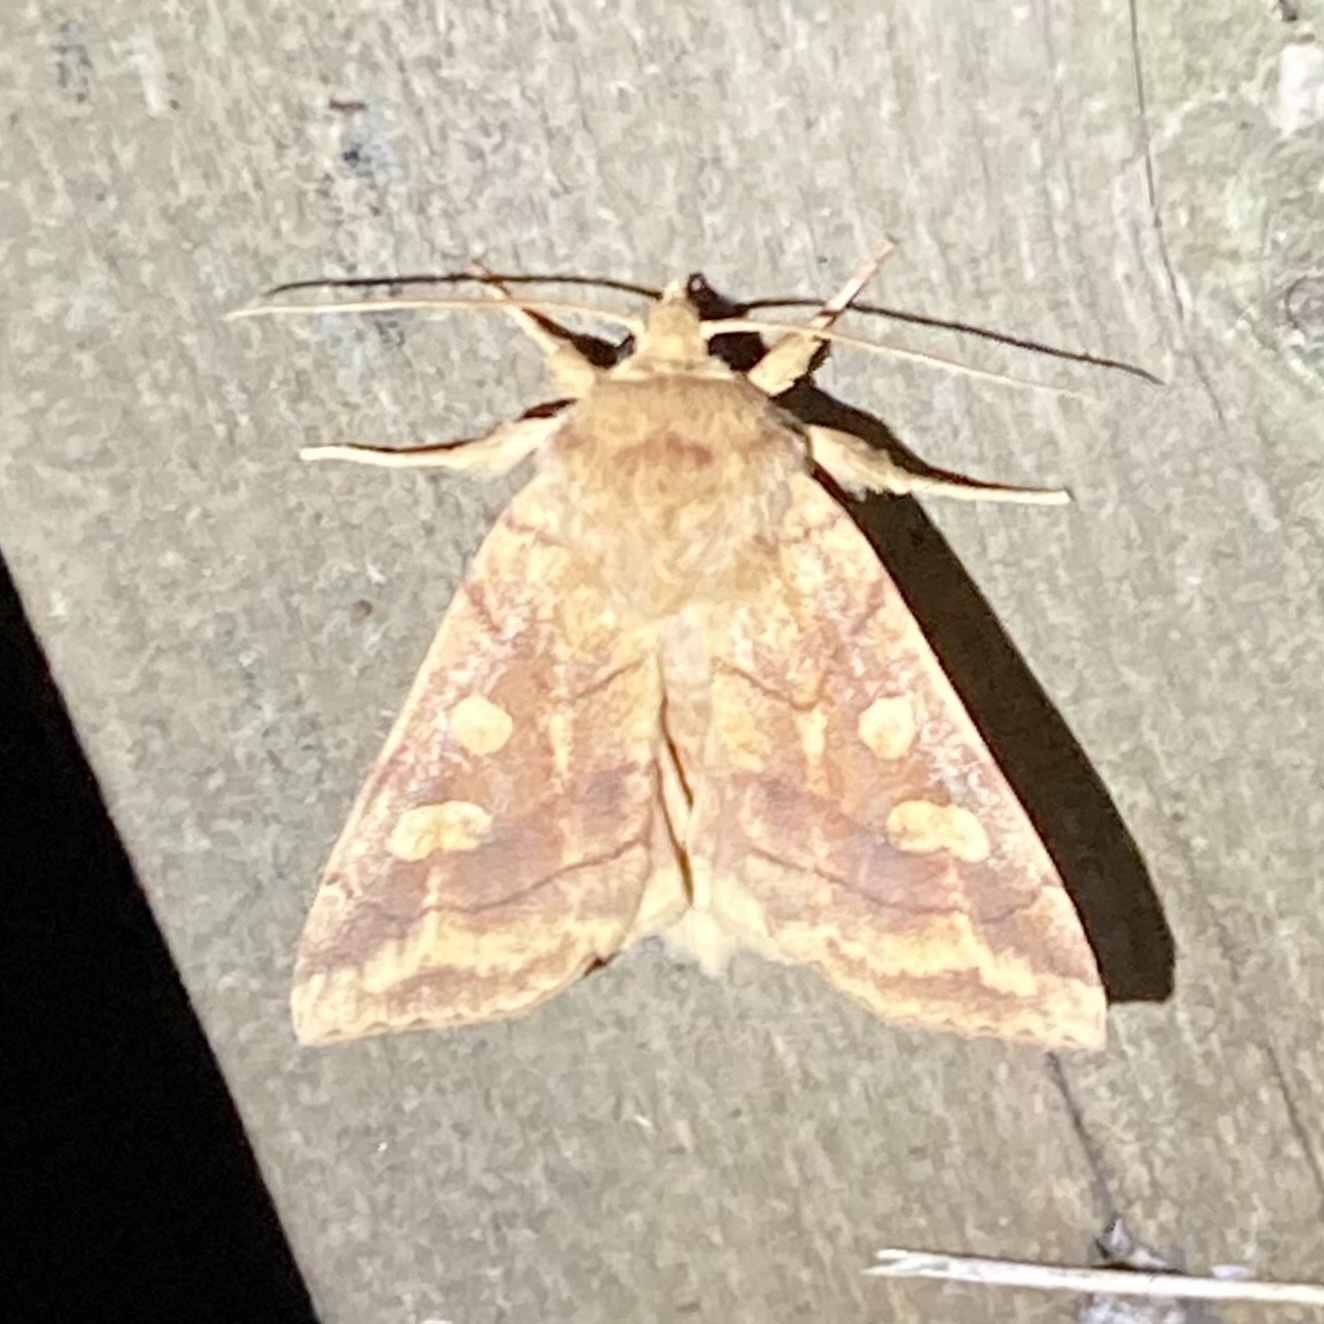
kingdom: Animalia
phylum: Arthropoda
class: Insecta
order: Lepidoptera
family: Noctuidae
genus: Enargia
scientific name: Enargia decolor
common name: Aspen twoleaf tier moth
